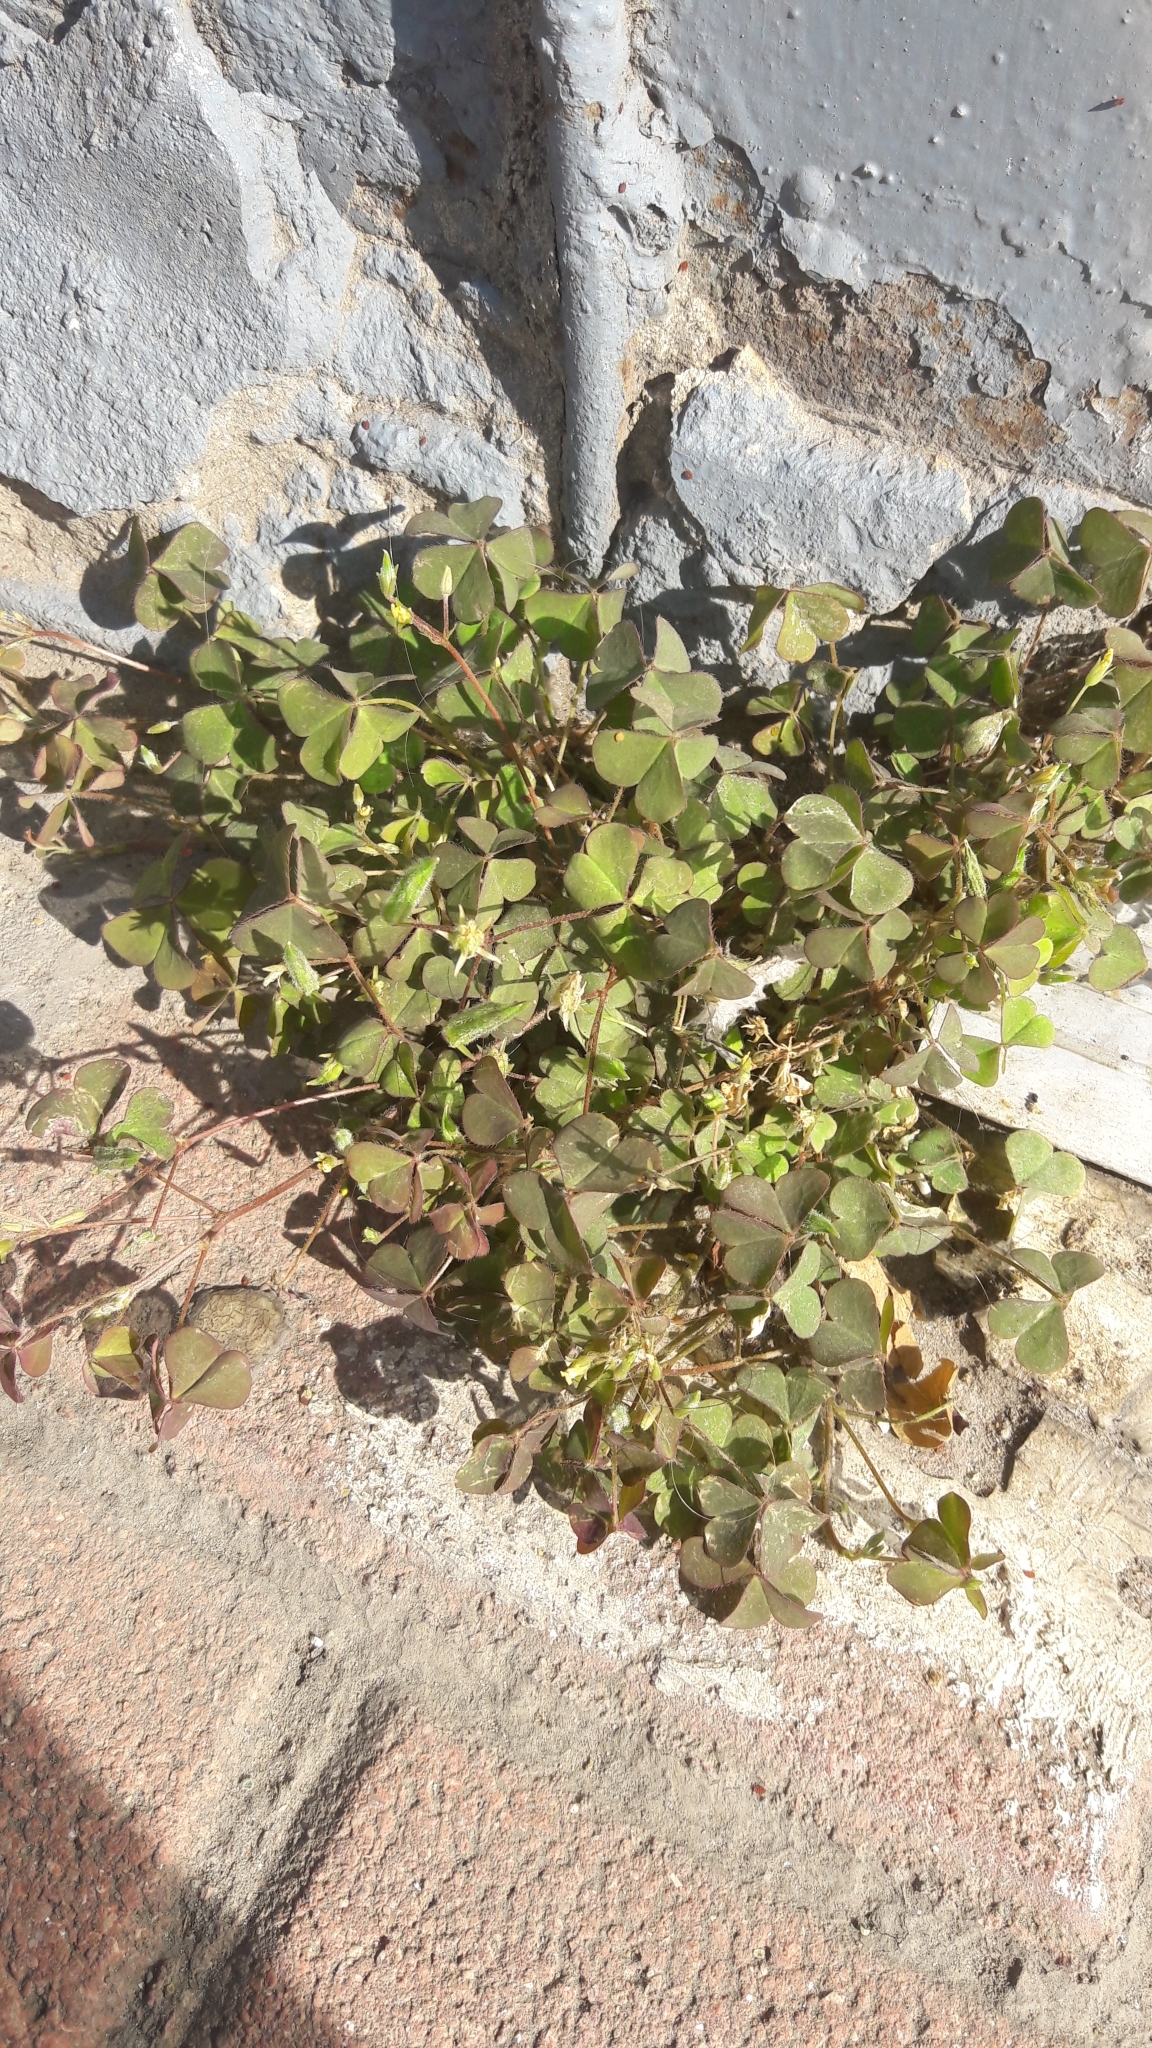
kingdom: Plantae
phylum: Tracheophyta
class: Magnoliopsida
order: Oxalidales
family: Oxalidaceae
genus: Oxalis
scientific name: Oxalis corniculata
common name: Procumbent yellow-sorrel
